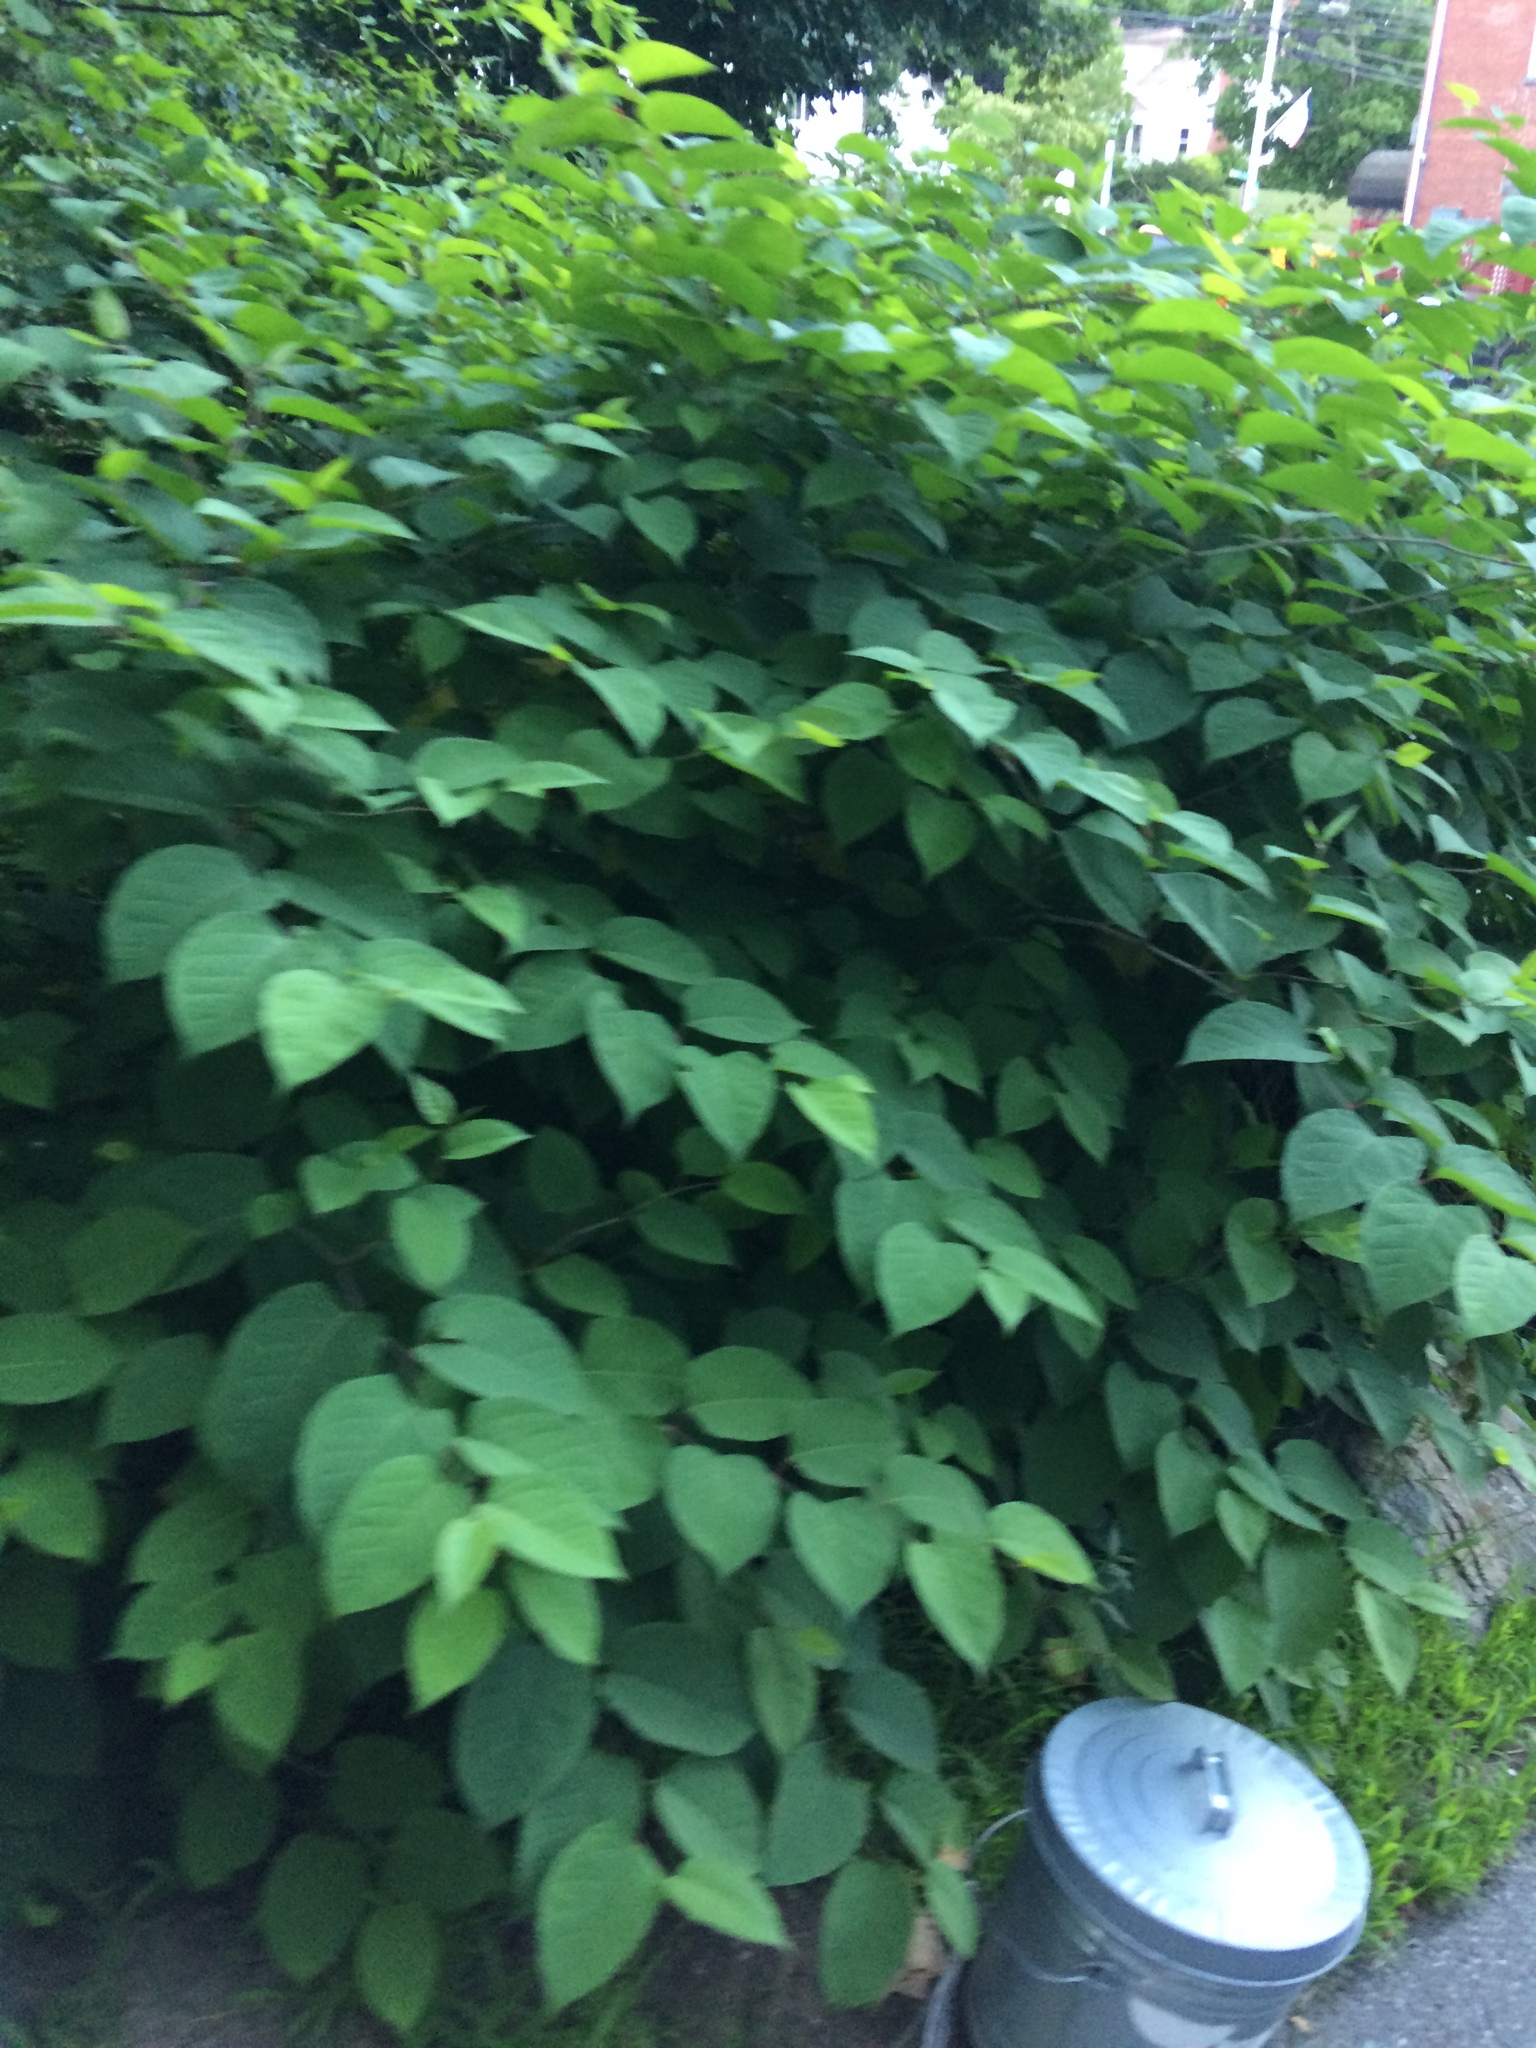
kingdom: Plantae
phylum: Tracheophyta
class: Magnoliopsida
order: Caryophyllales
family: Polygonaceae
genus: Reynoutria
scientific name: Reynoutria japonica
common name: Japanese knotweed
